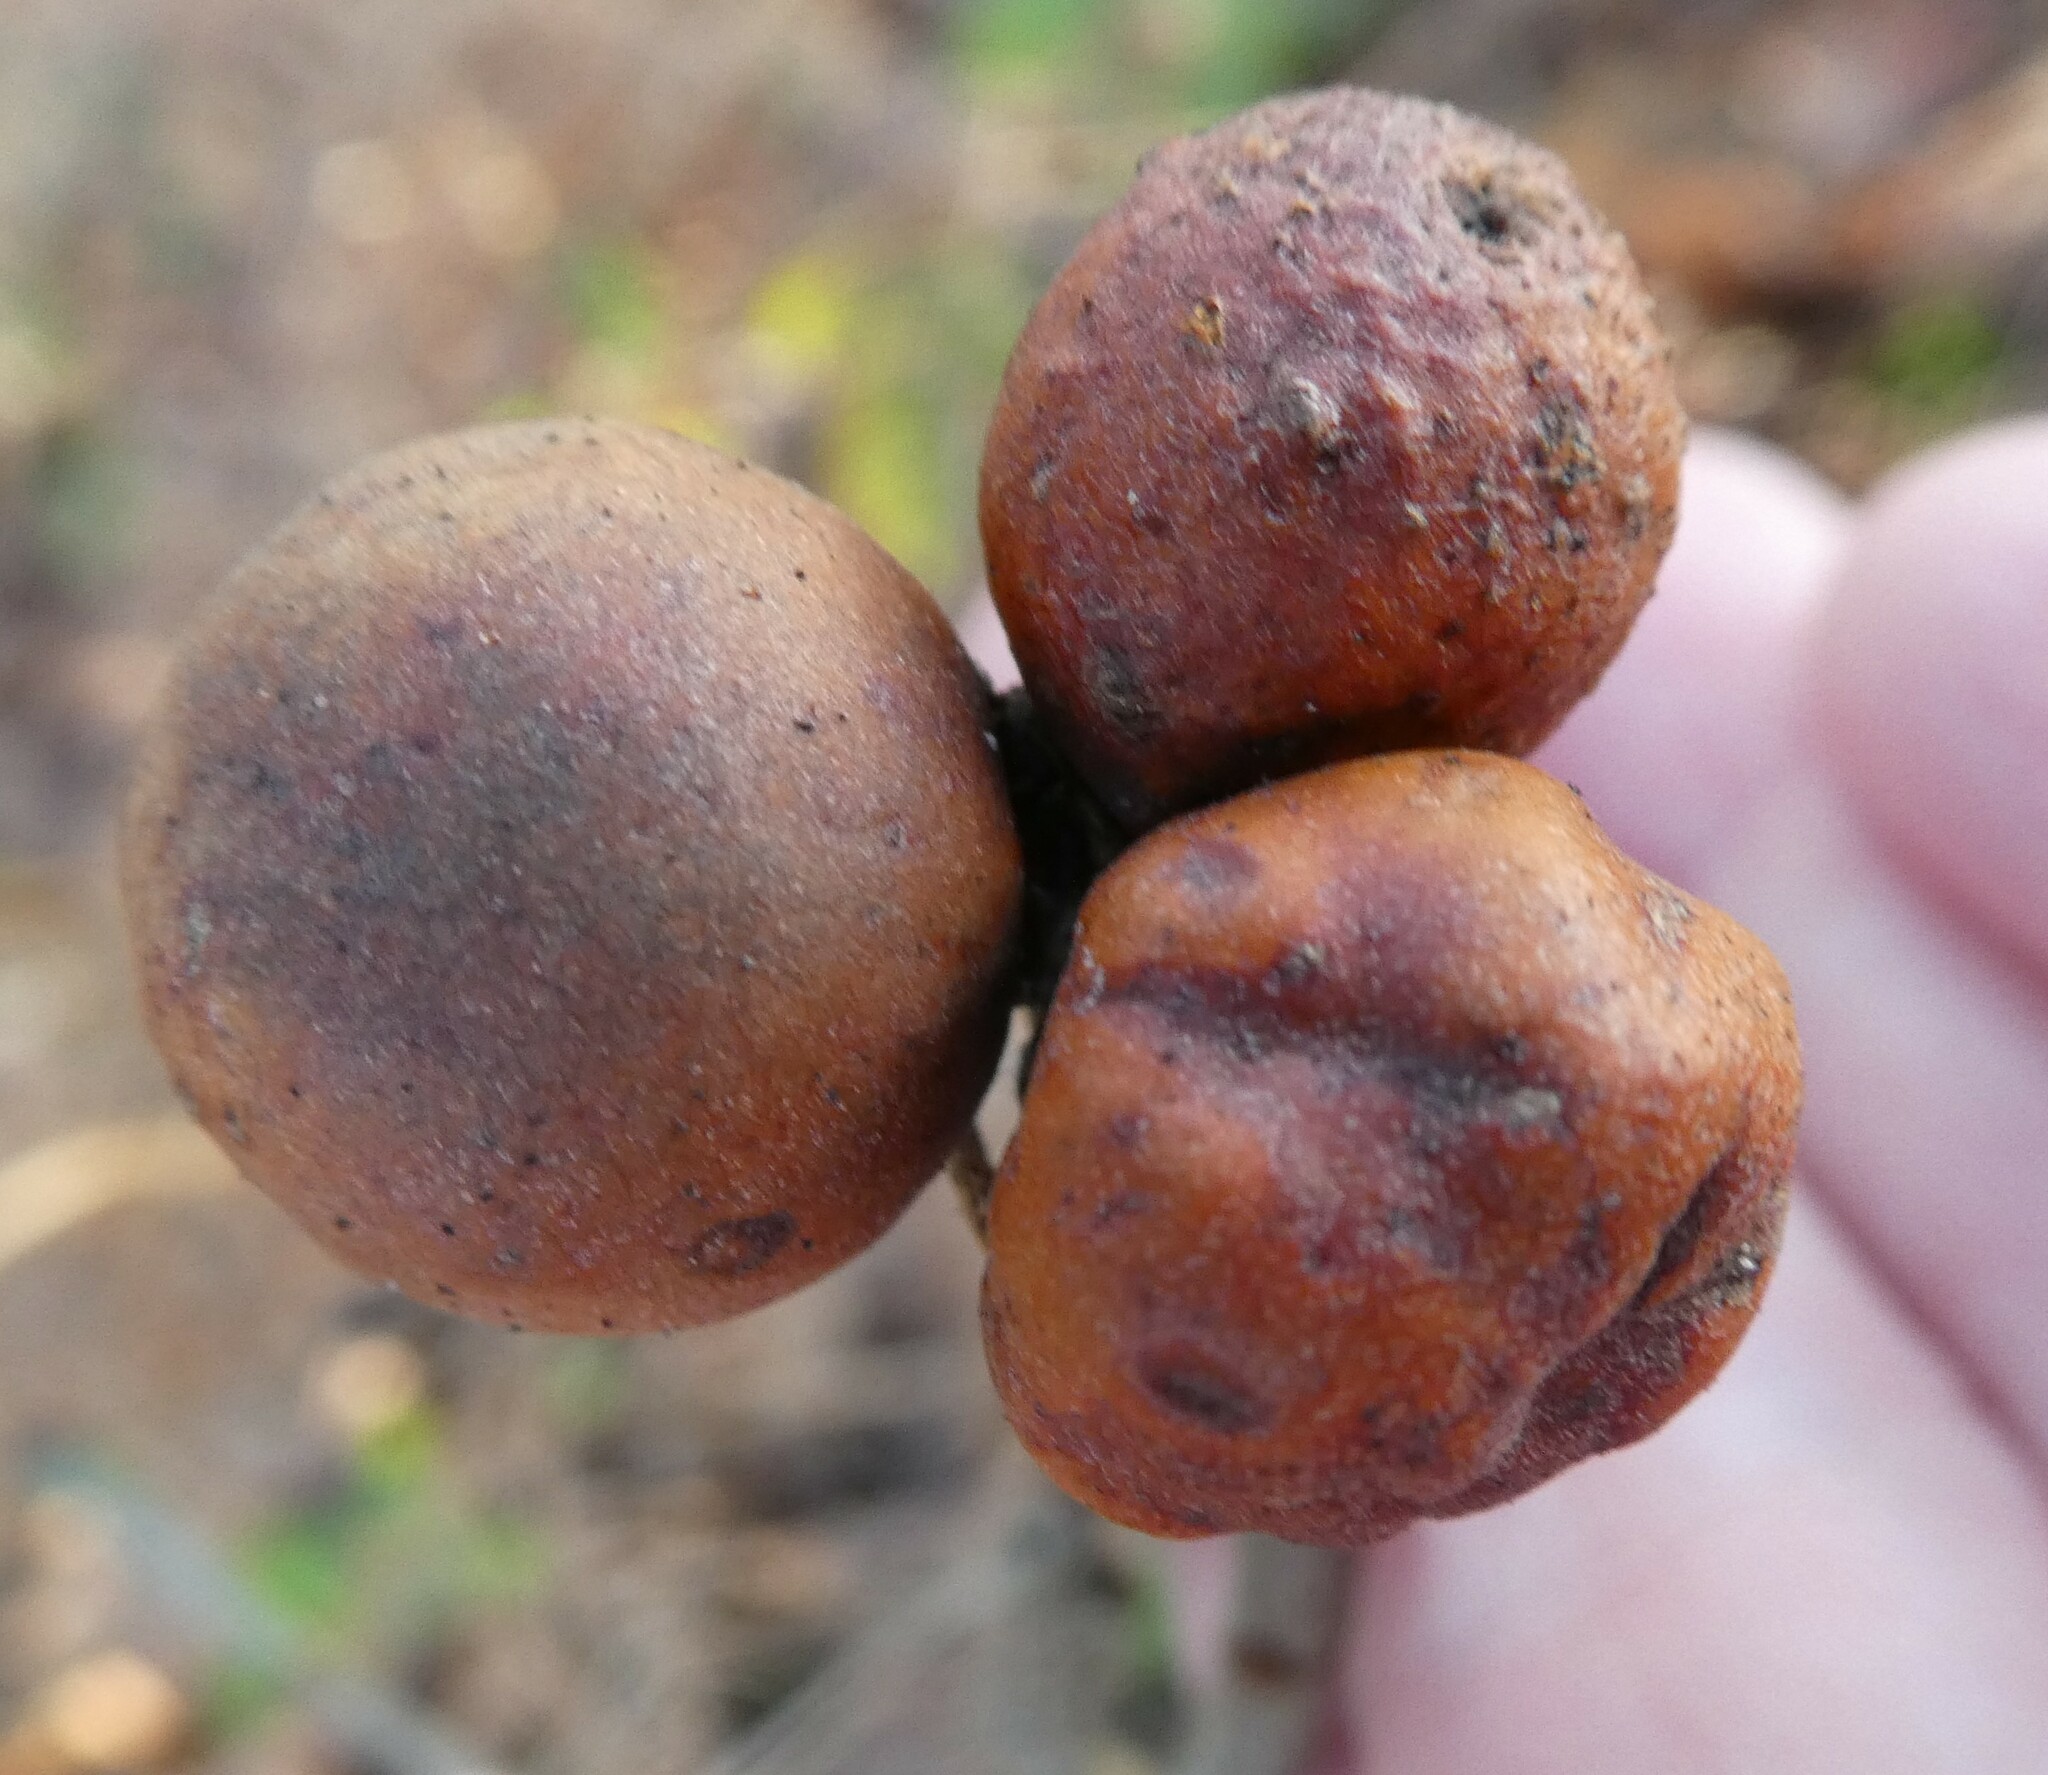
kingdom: Animalia
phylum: Arthropoda
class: Insecta
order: Hymenoptera
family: Cynipidae
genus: Andricus
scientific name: Andricus kollari
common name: Marble gall
